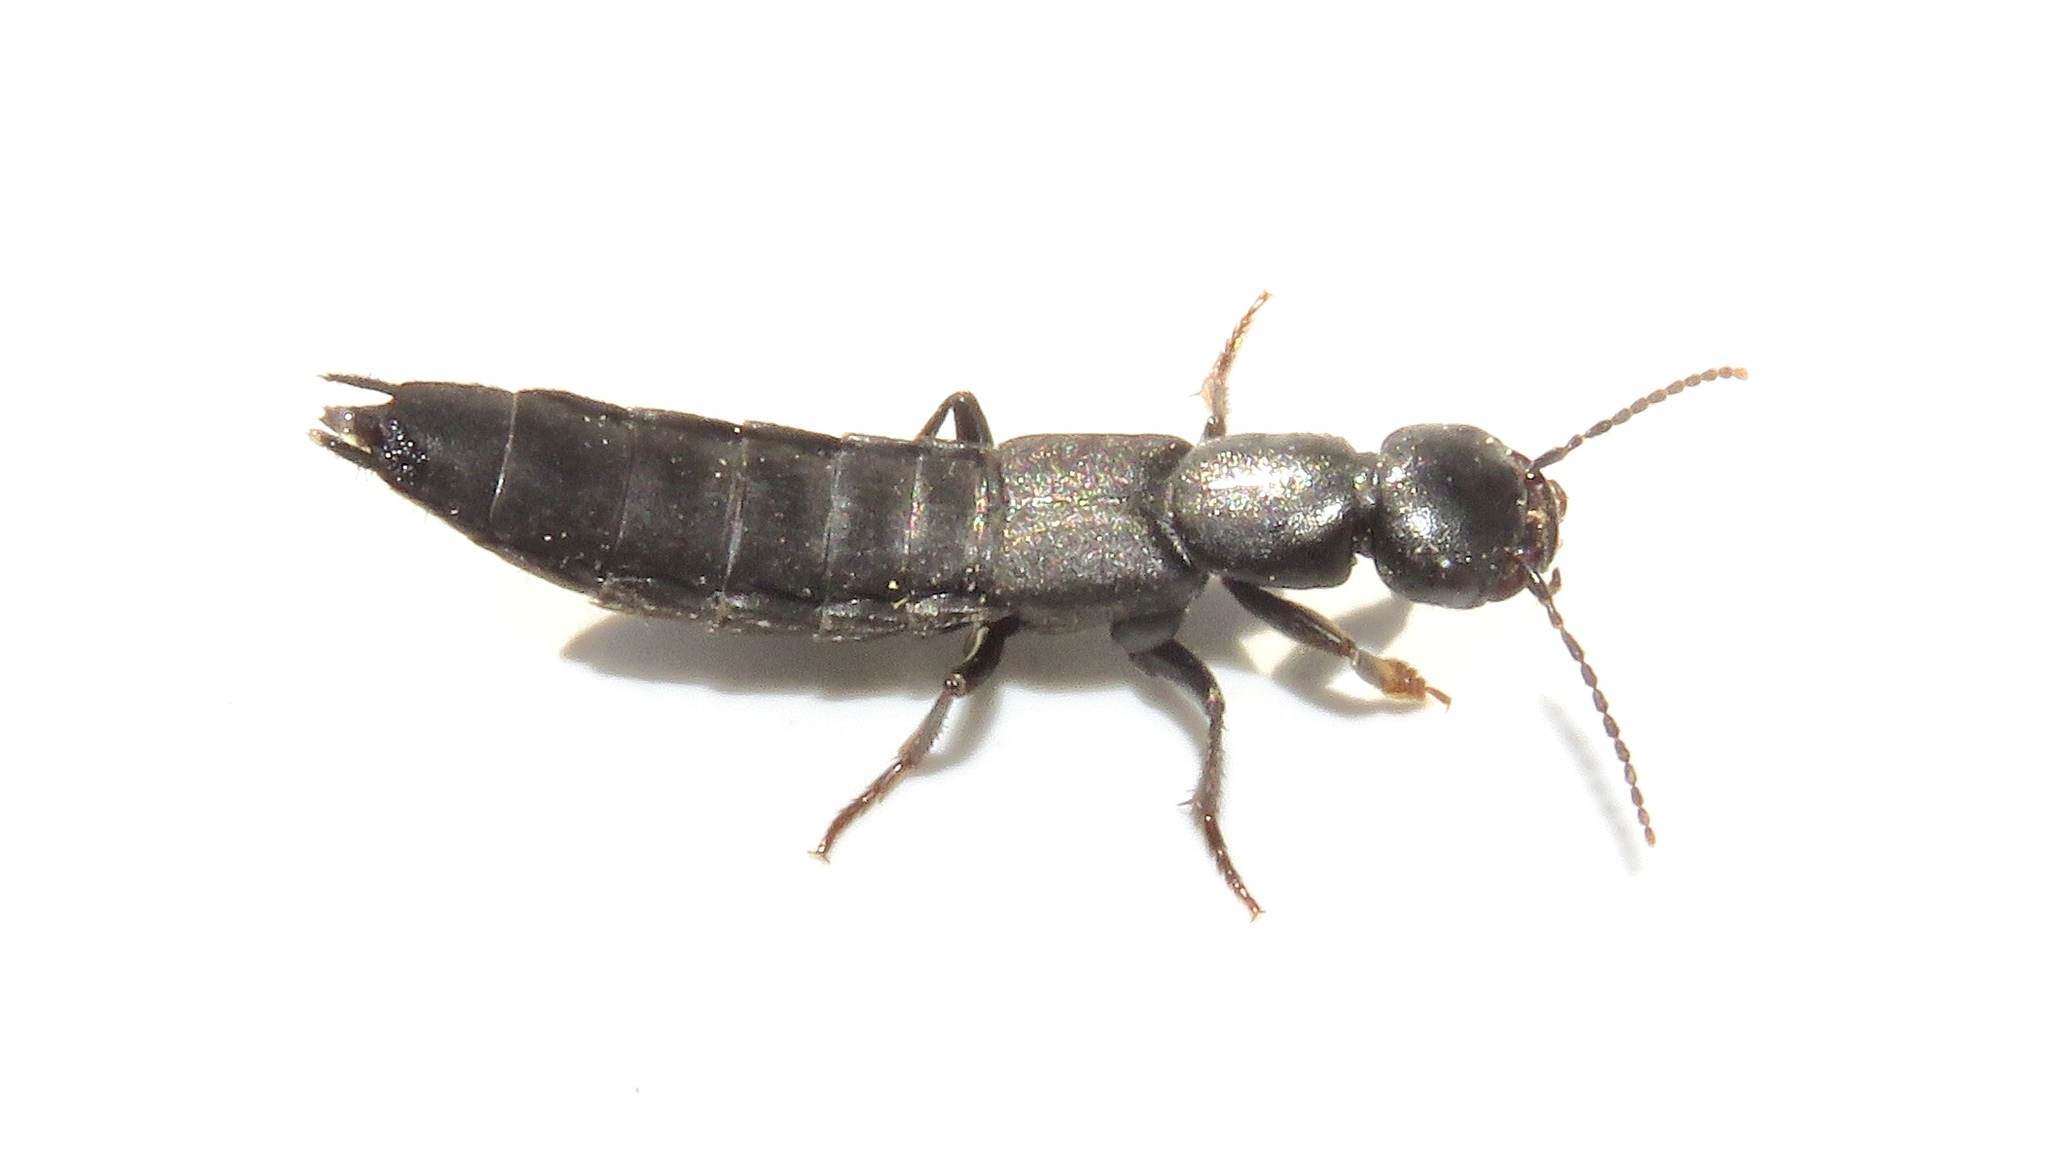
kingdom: Animalia
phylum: Arthropoda
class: Insecta
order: Coleoptera
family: Staphylinidae
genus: Tasgius
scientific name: Tasgius melanarius
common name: Rove beetle
